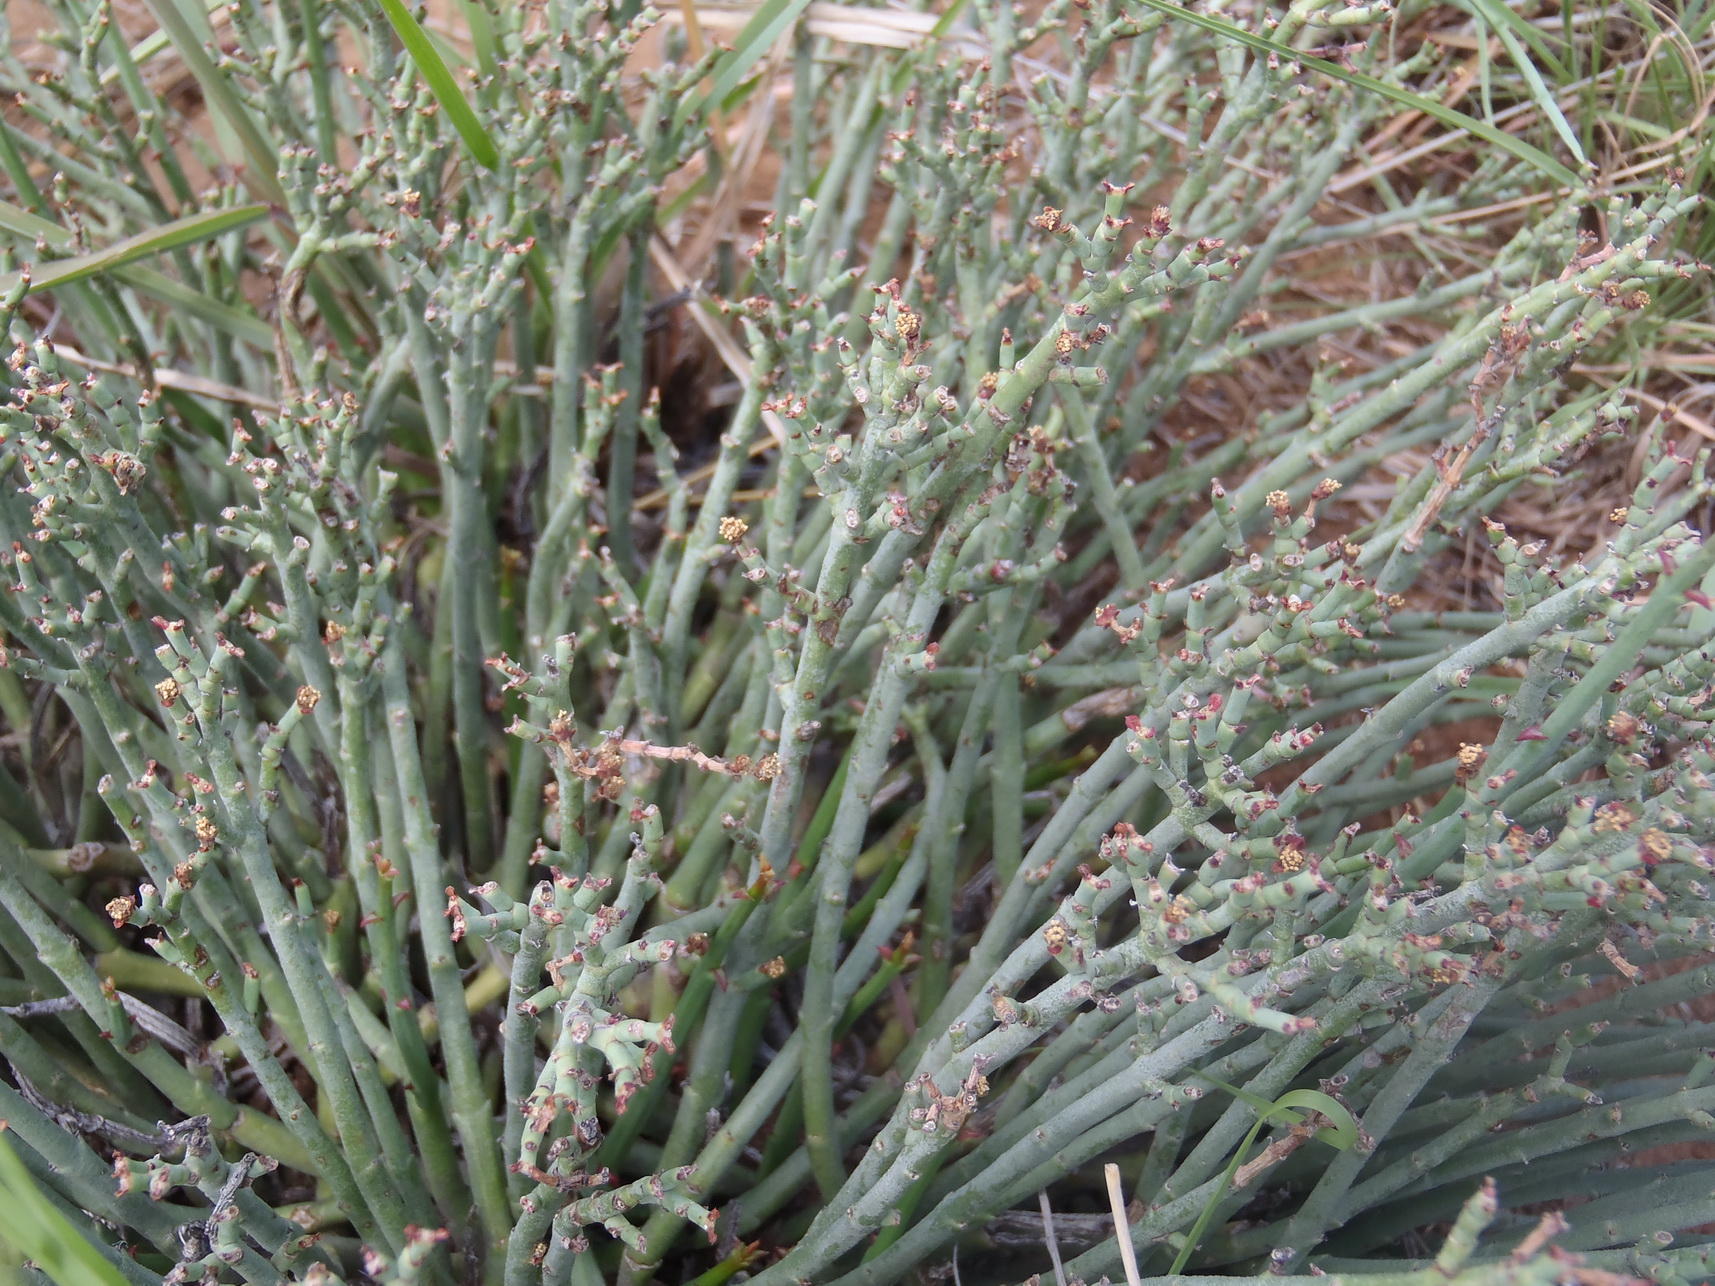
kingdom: Plantae
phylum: Tracheophyta
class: Magnoliopsida
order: Malpighiales
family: Euphorbiaceae
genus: Euphorbia
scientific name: Euphorbia rhombifolia
